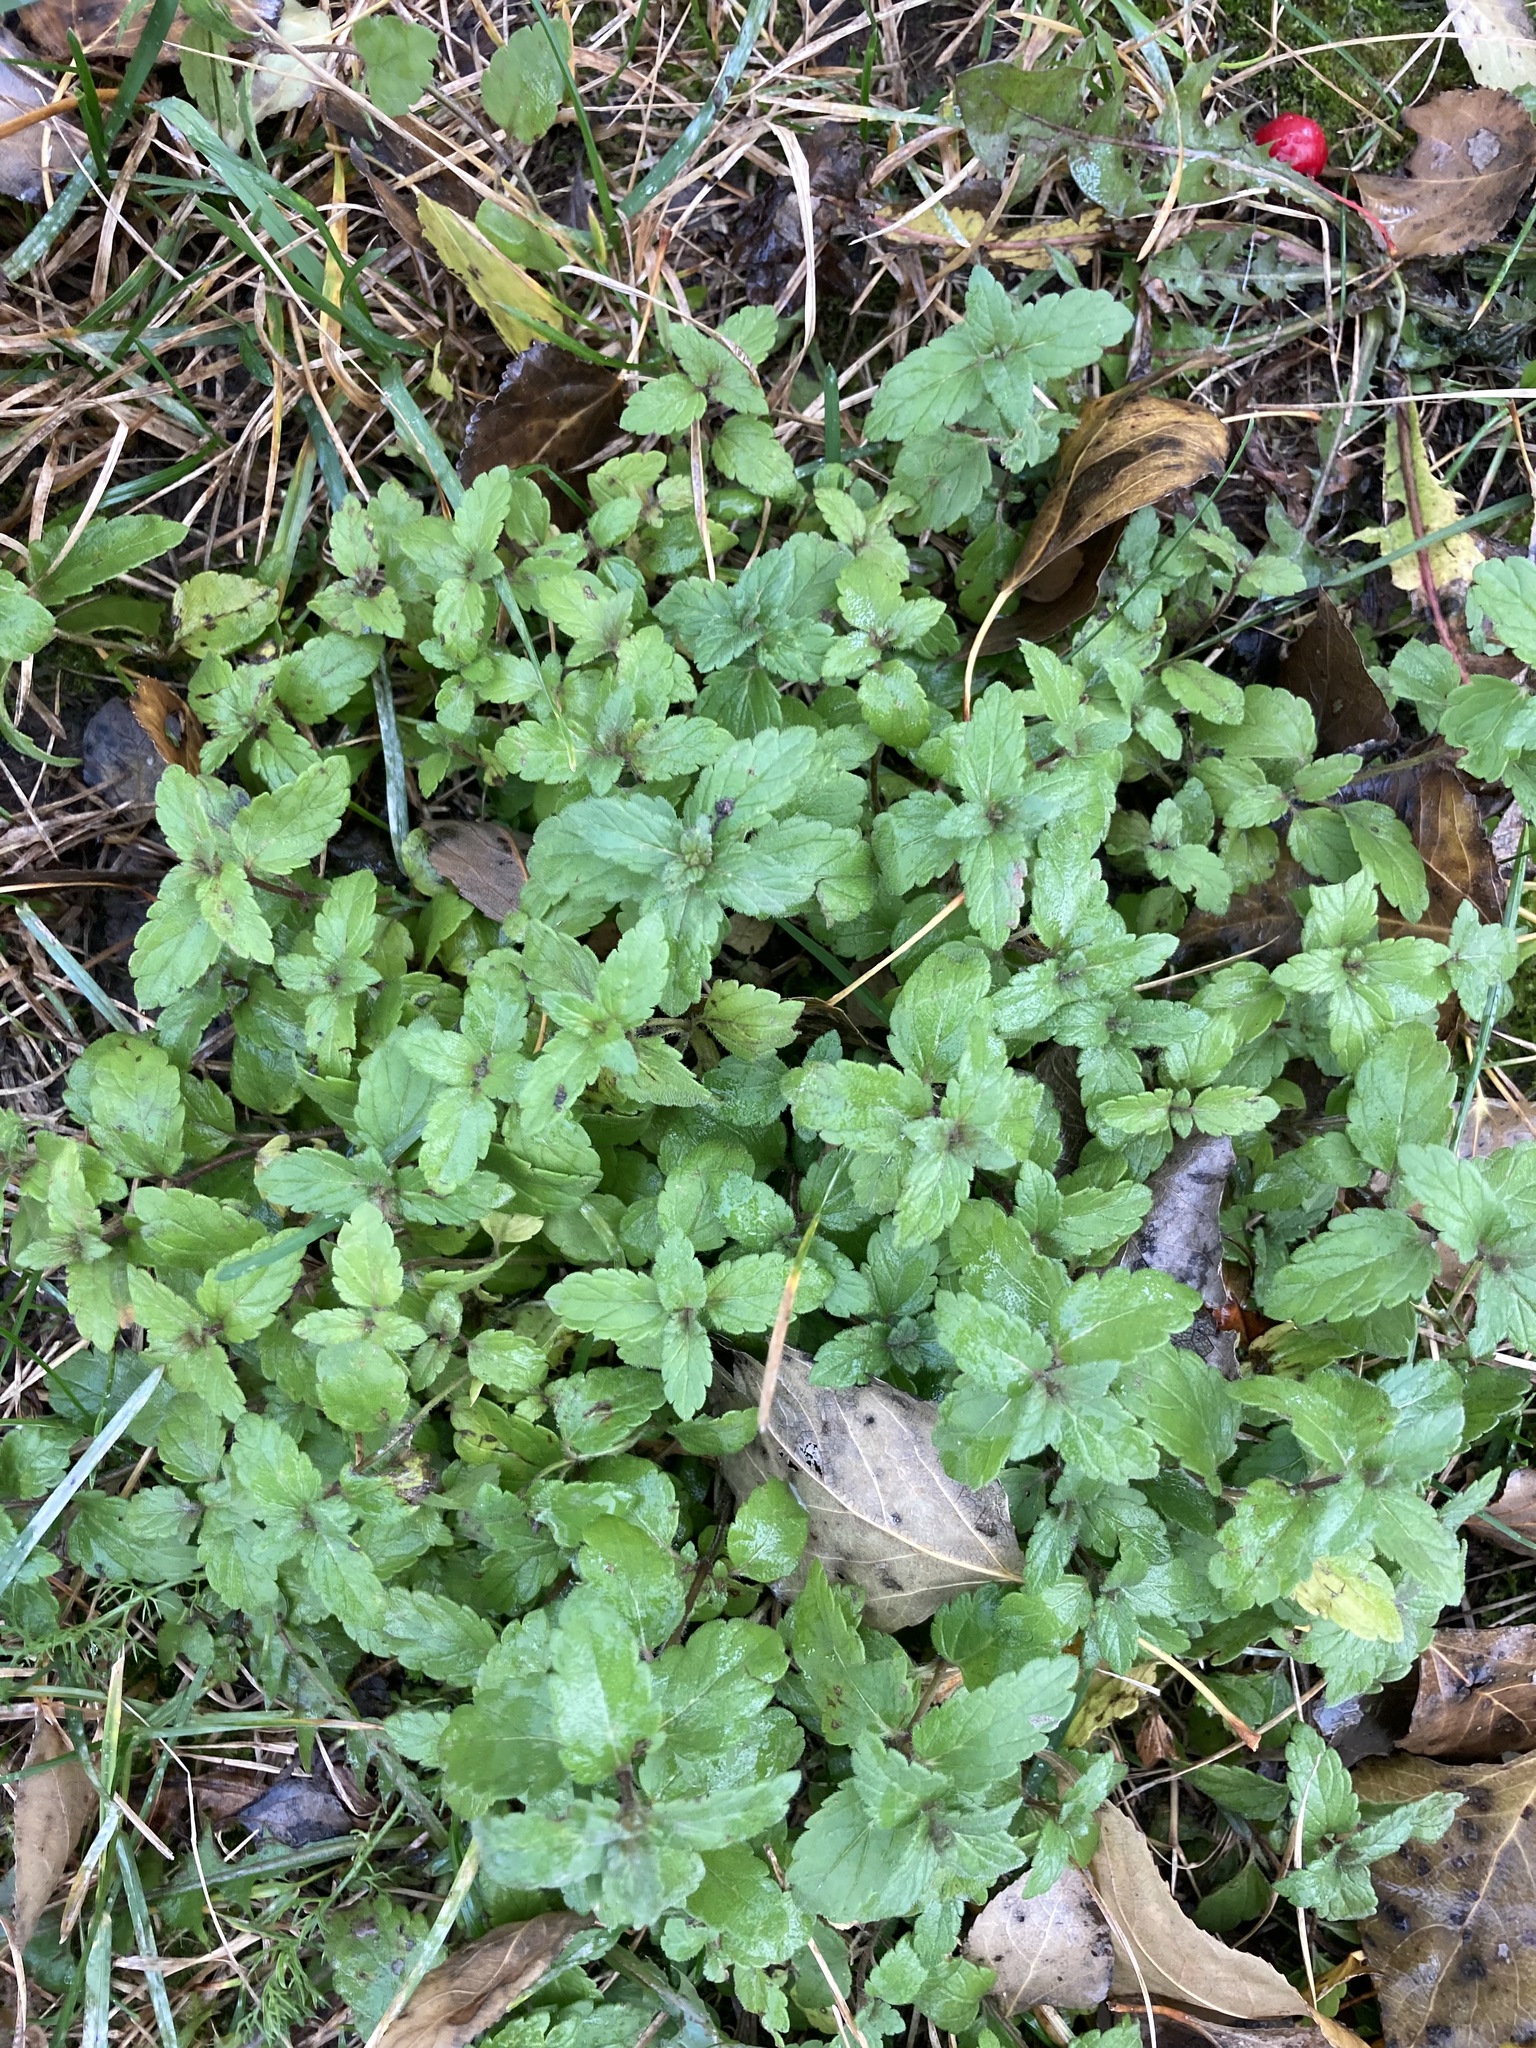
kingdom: Plantae
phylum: Tracheophyta
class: Magnoliopsida
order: Lamiales
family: Plantaginaceae
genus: Veronica
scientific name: Veronica chamaedrys
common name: Germander speedwell
